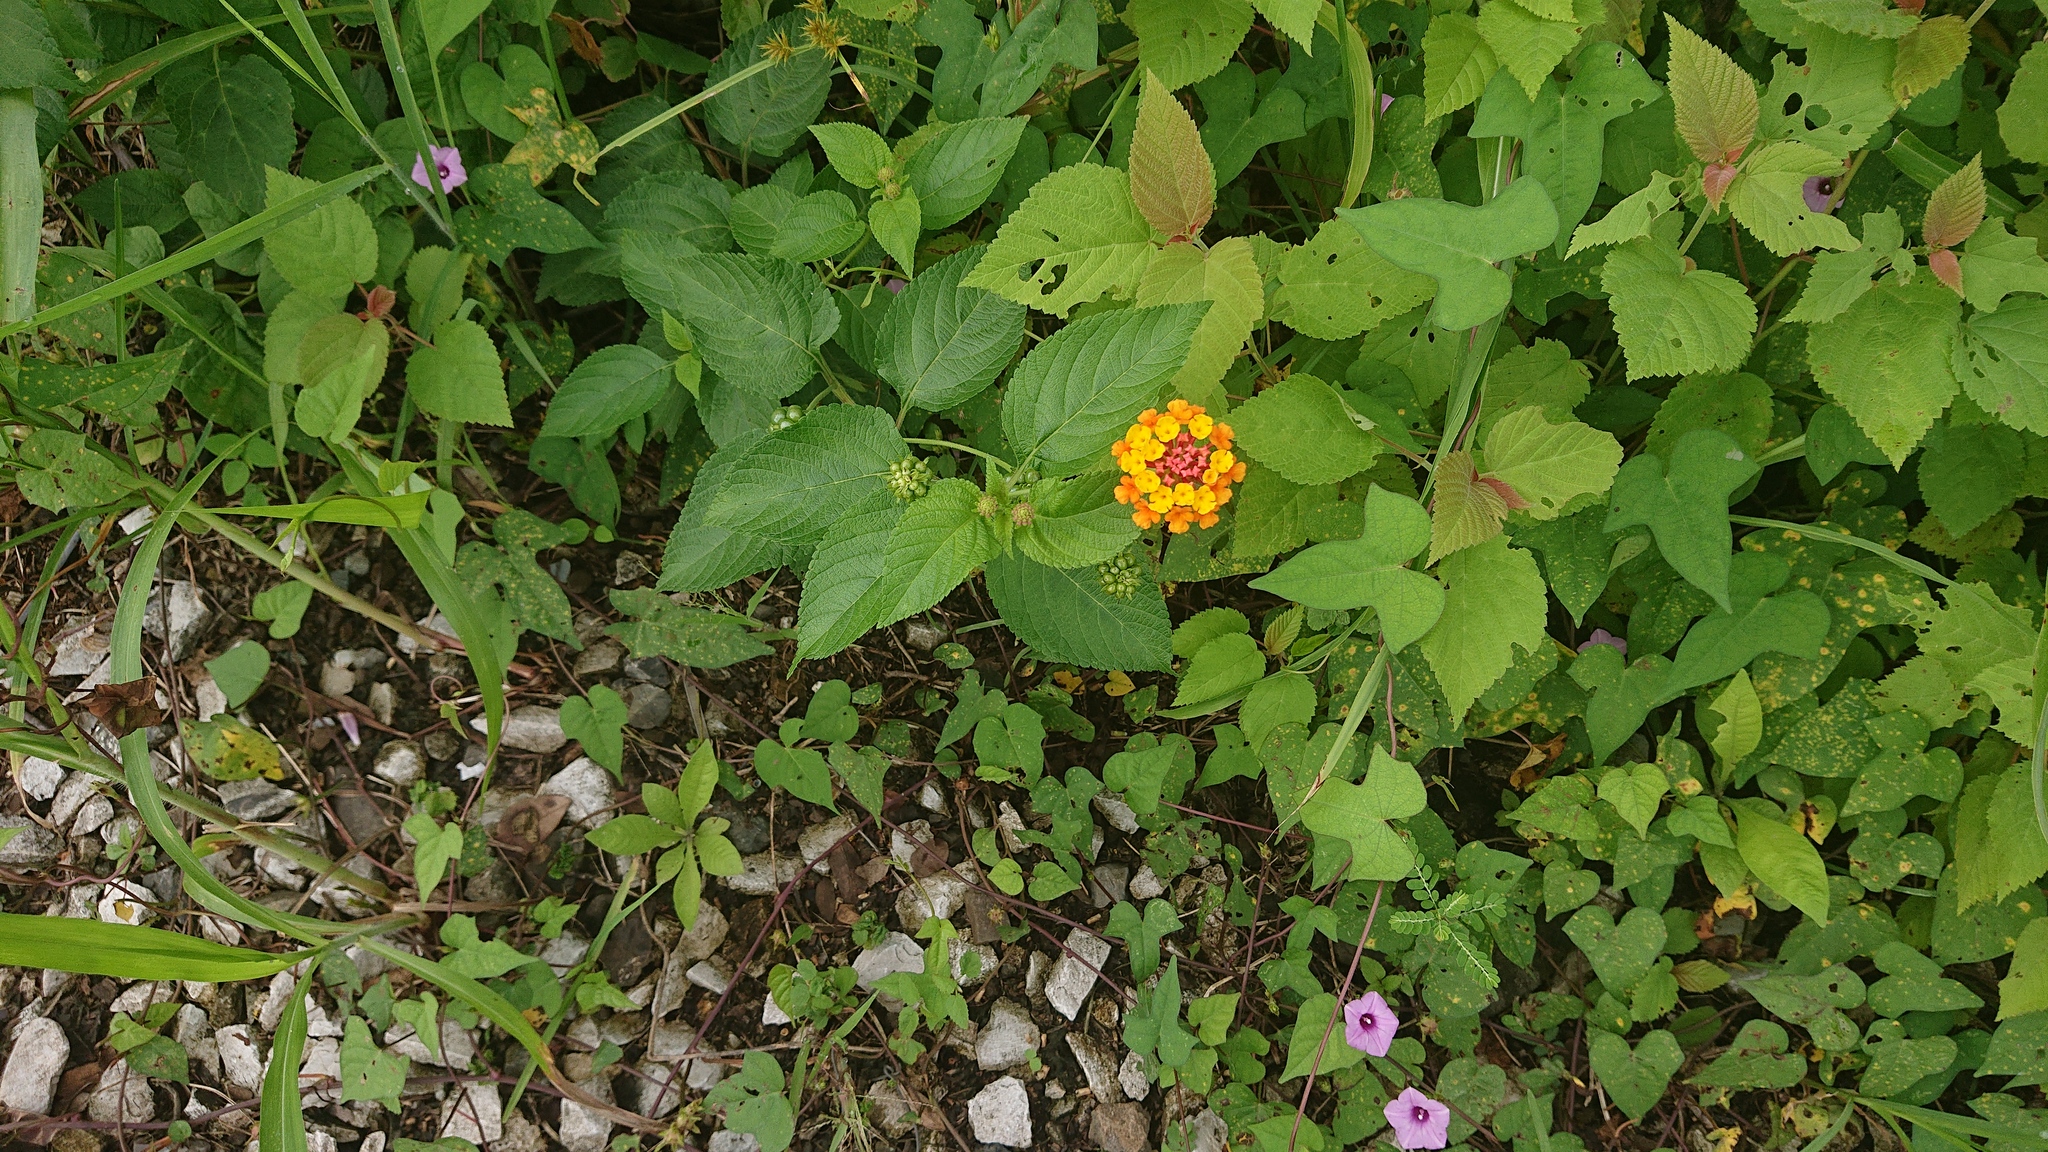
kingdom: Plantae
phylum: Tracheophyta
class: Magnoliopsida
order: Lamiales
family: Verbenaceae
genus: Lantana
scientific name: Lantana camara
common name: Lantana
